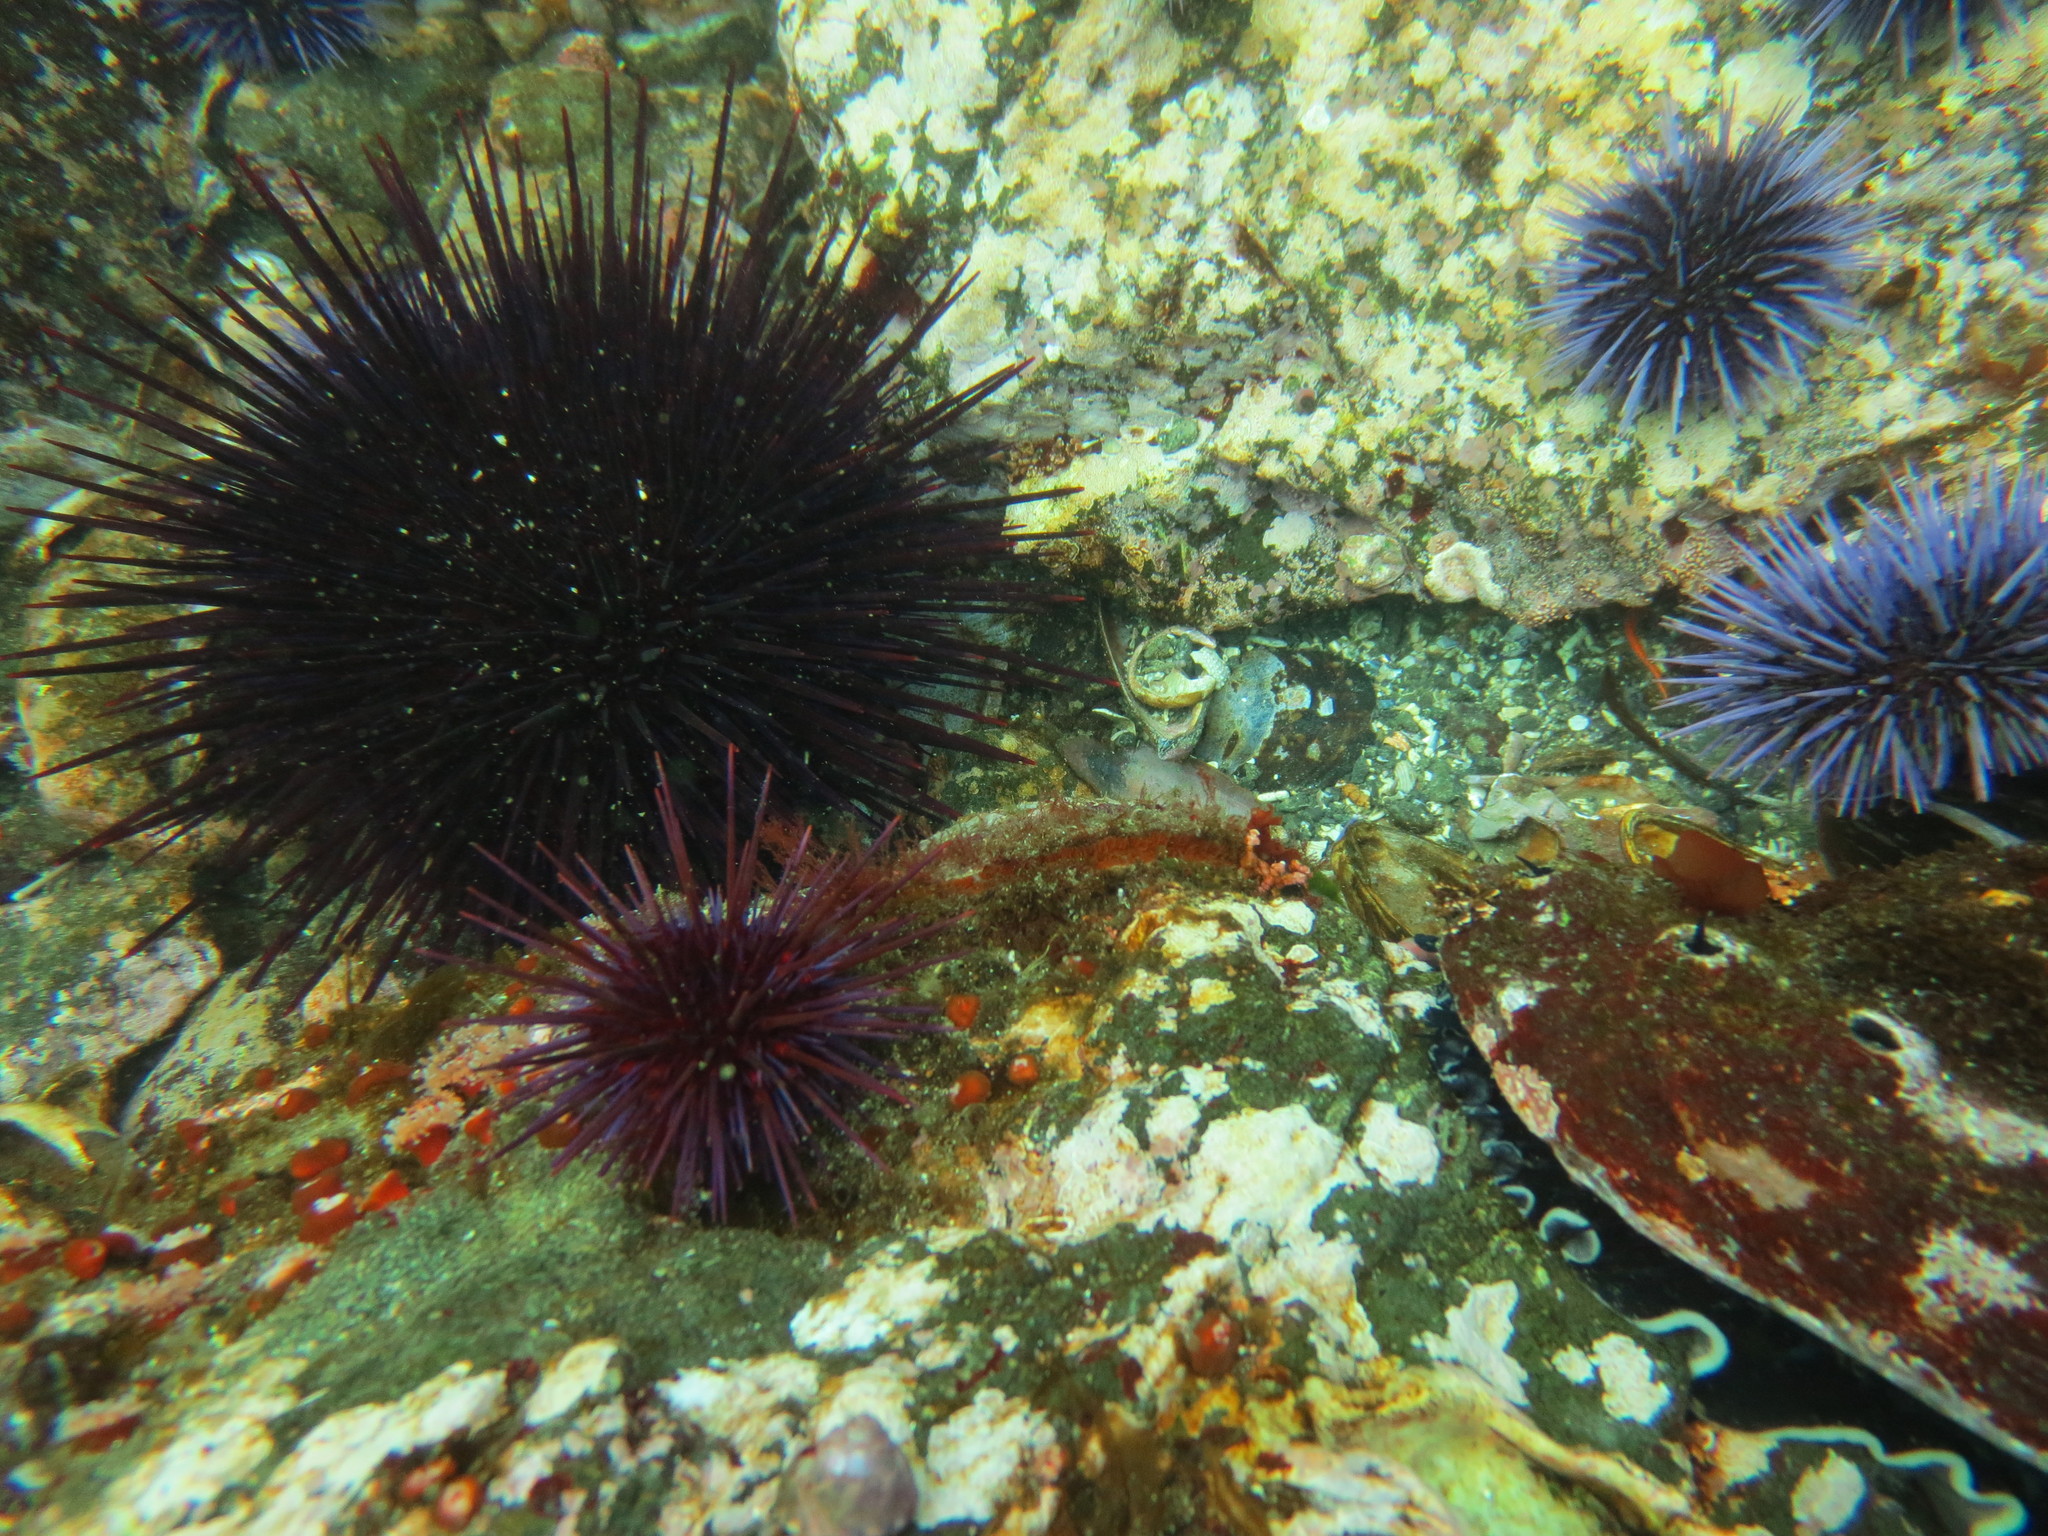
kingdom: Animalia
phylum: Mollusca
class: Bivalvia
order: Pectinida
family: Pectinidae
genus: Crassadoma
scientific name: Crassadoma gigantea
